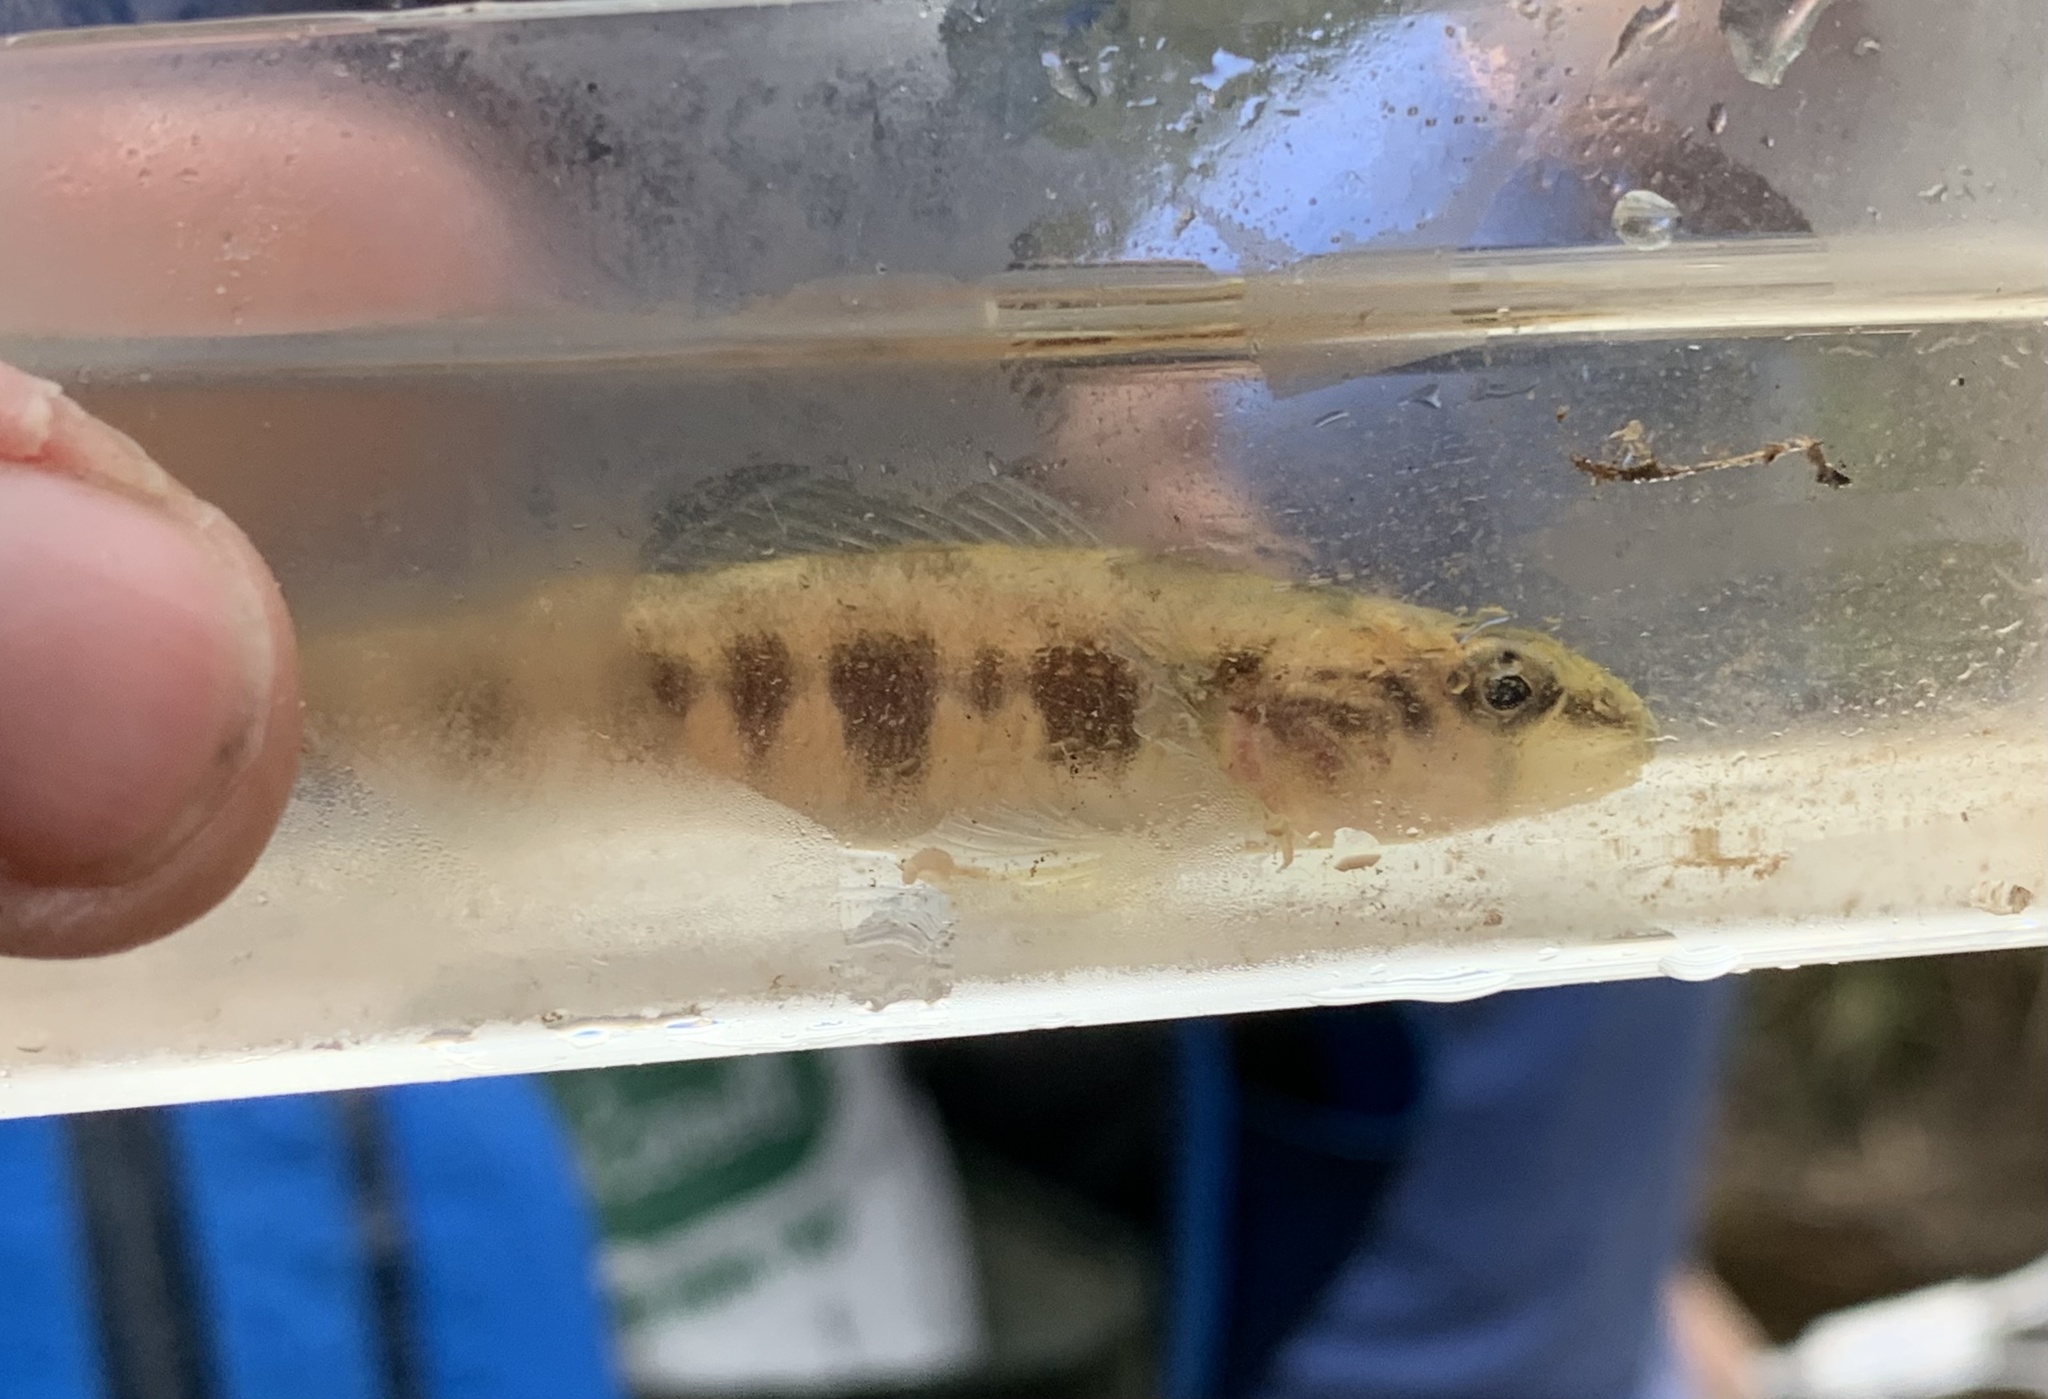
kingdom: Animalia
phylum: Chordata
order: Perciformes
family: Percidae
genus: Percina
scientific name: Percina crassa
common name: Piedmont darter
